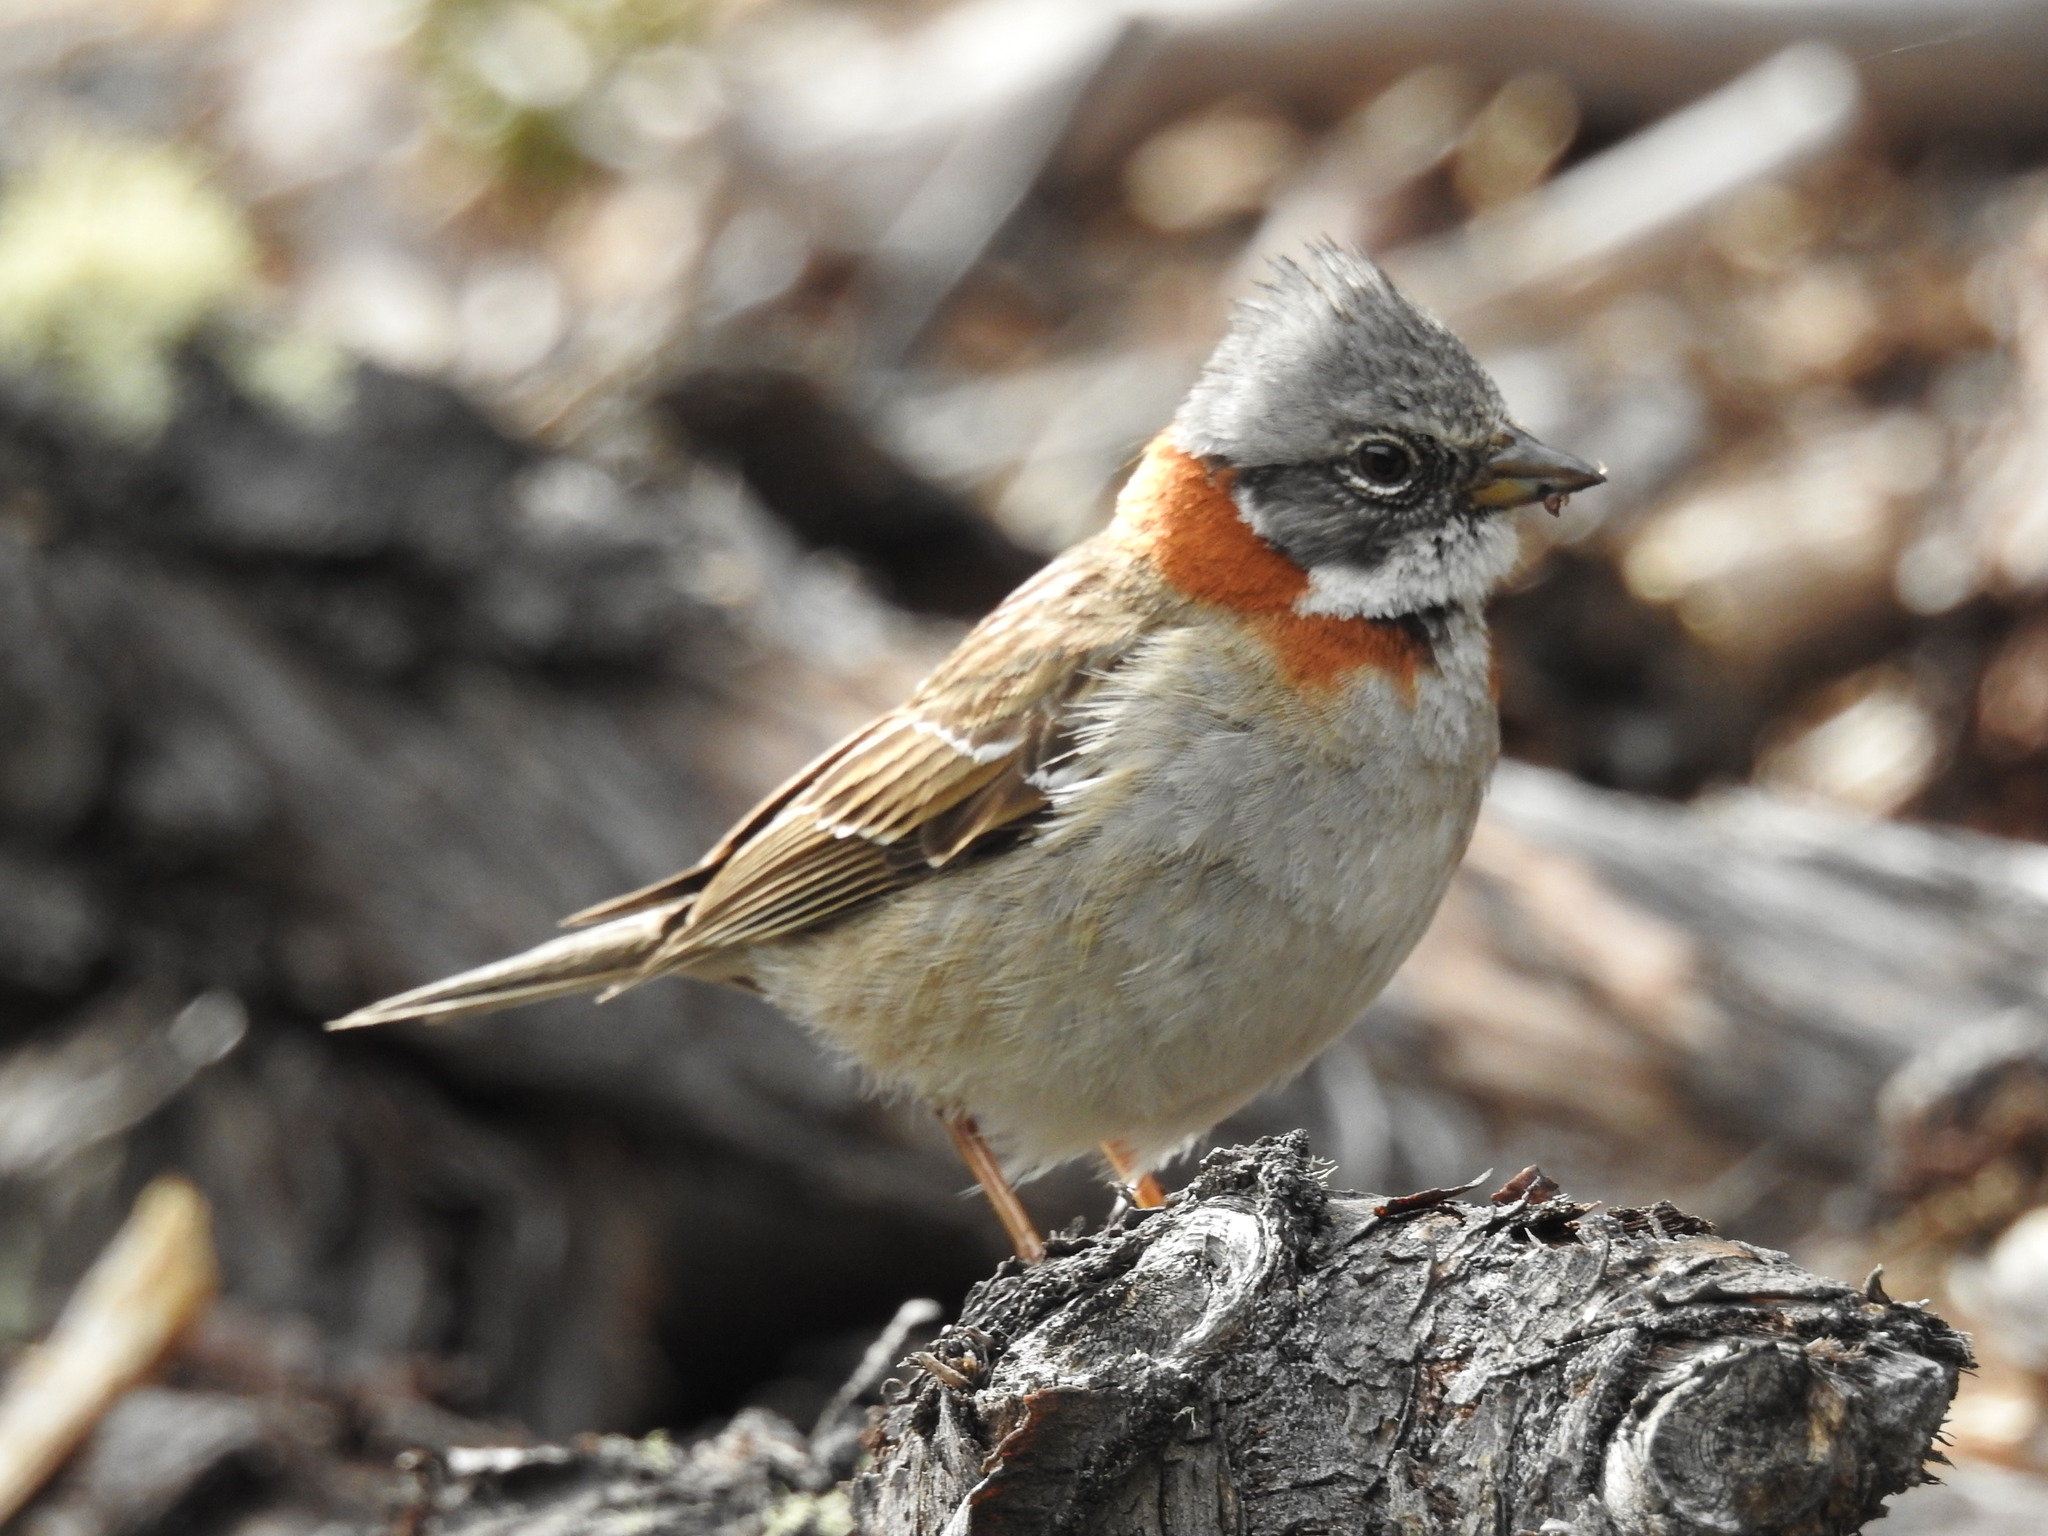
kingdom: Animalia
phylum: Chordata
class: Aves
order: Passeriformes
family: Passerellidae
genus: Zonotrichia
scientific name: Zonotrichia capensis
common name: Rufous-collared sparrow
